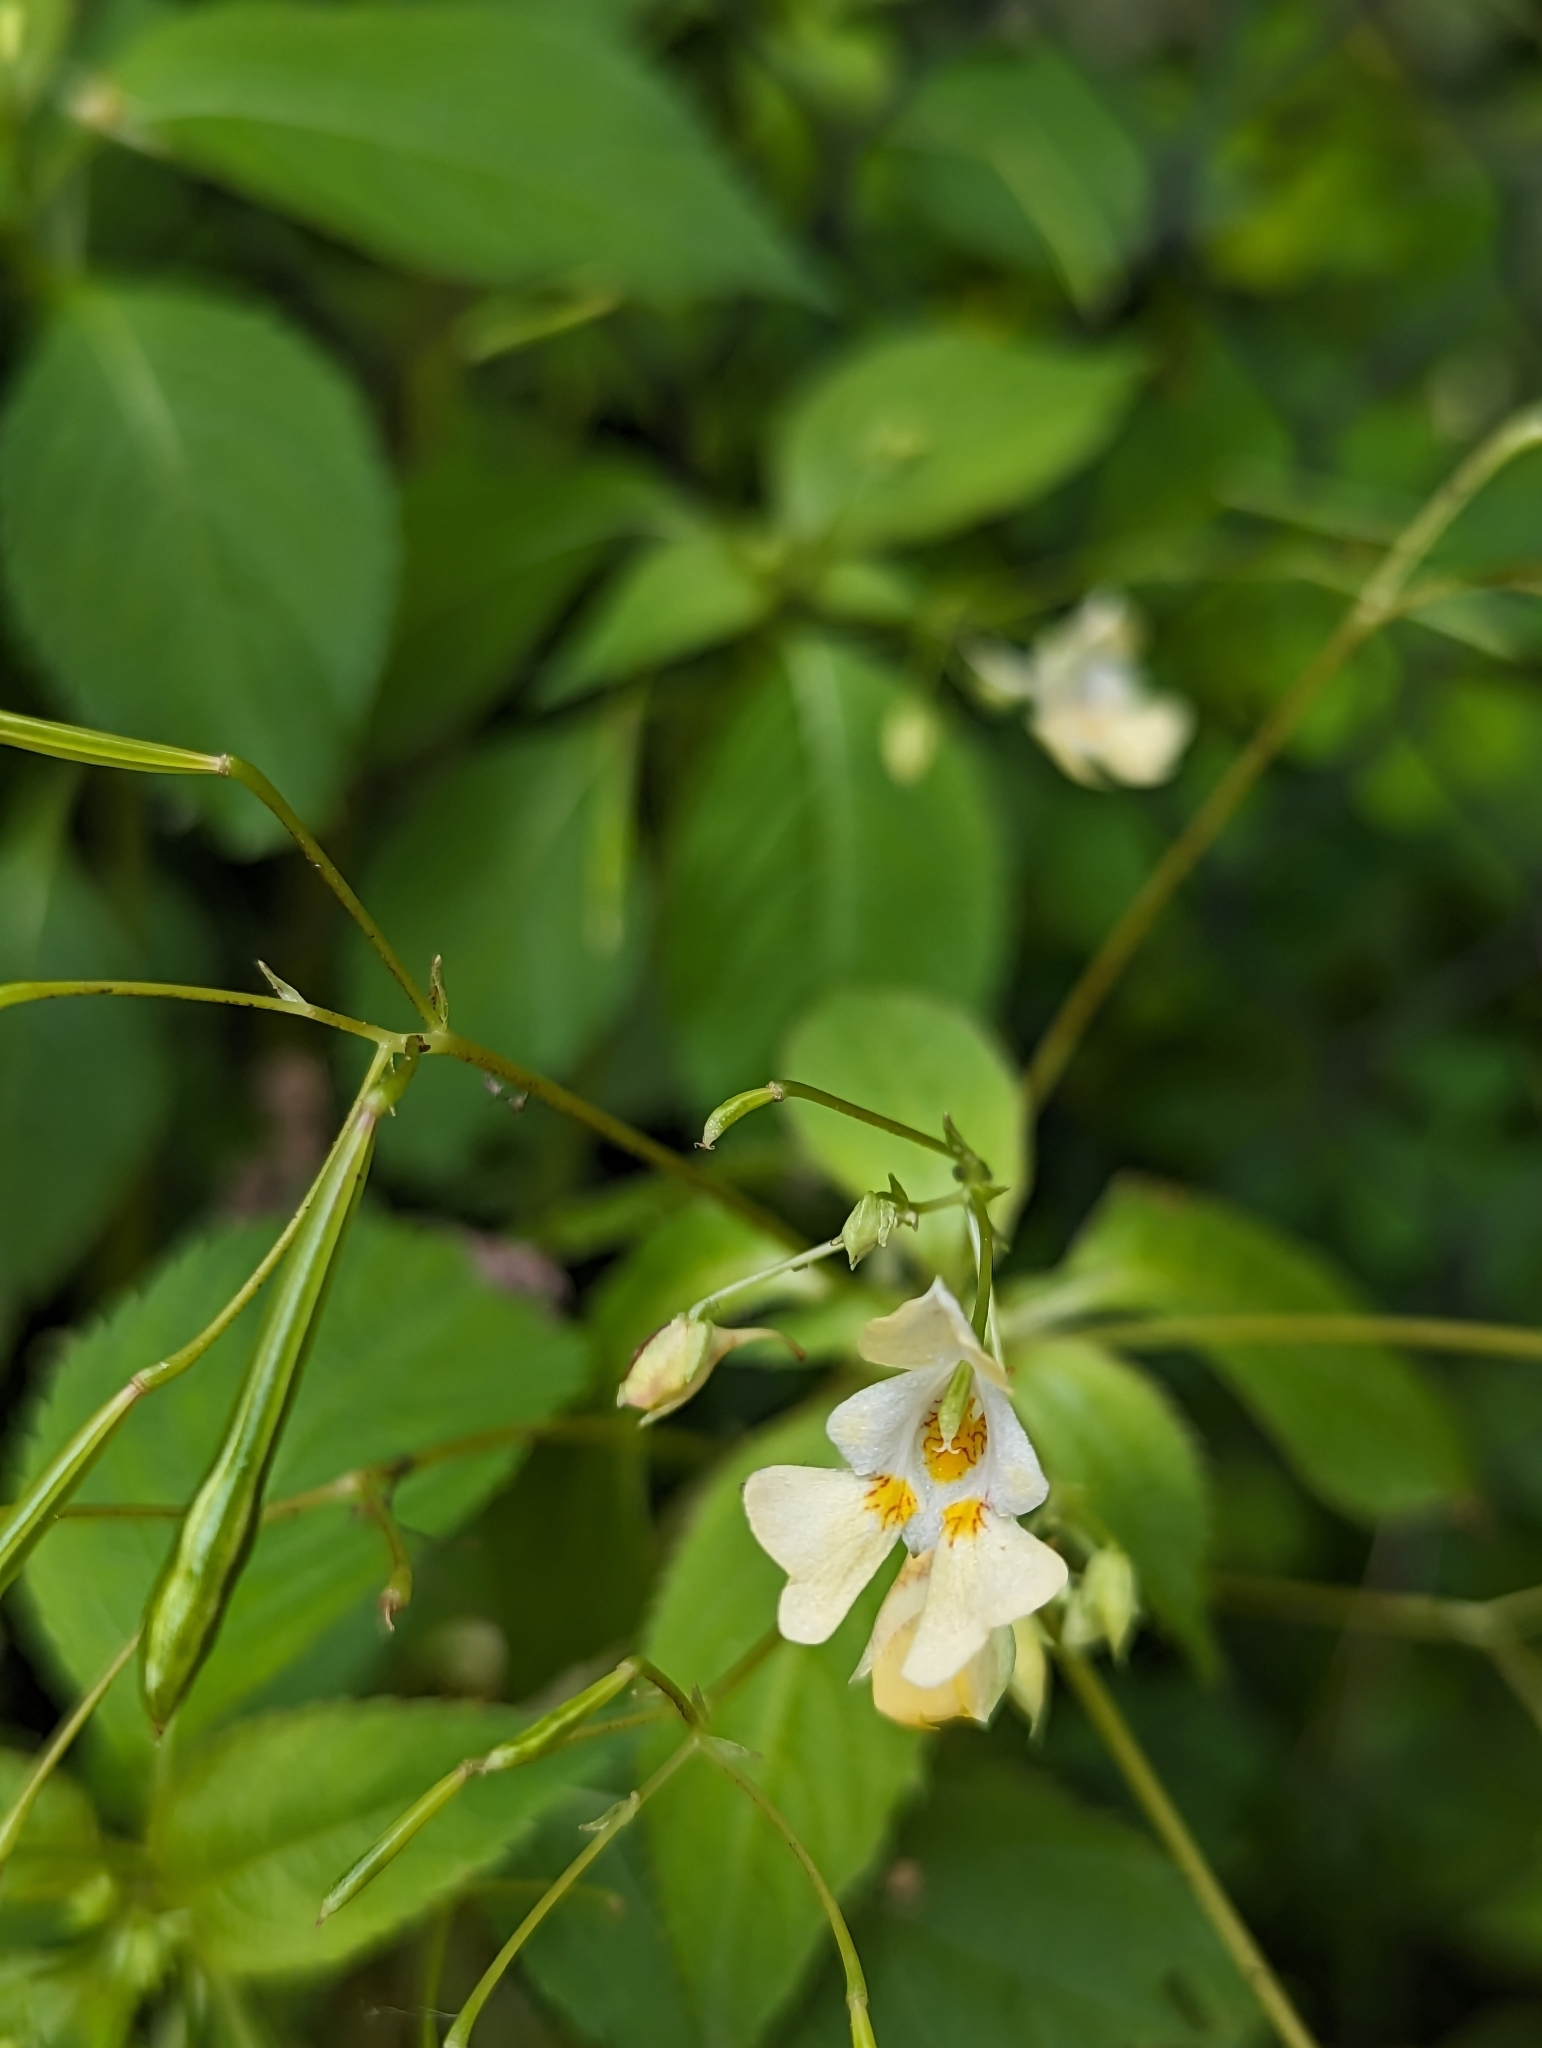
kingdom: Plantae
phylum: Tracheophyta
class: Magnoliopsida
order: Ericales
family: Balsaminaceae
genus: Impatiens
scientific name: Impatiens parviflora
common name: Small balsam
